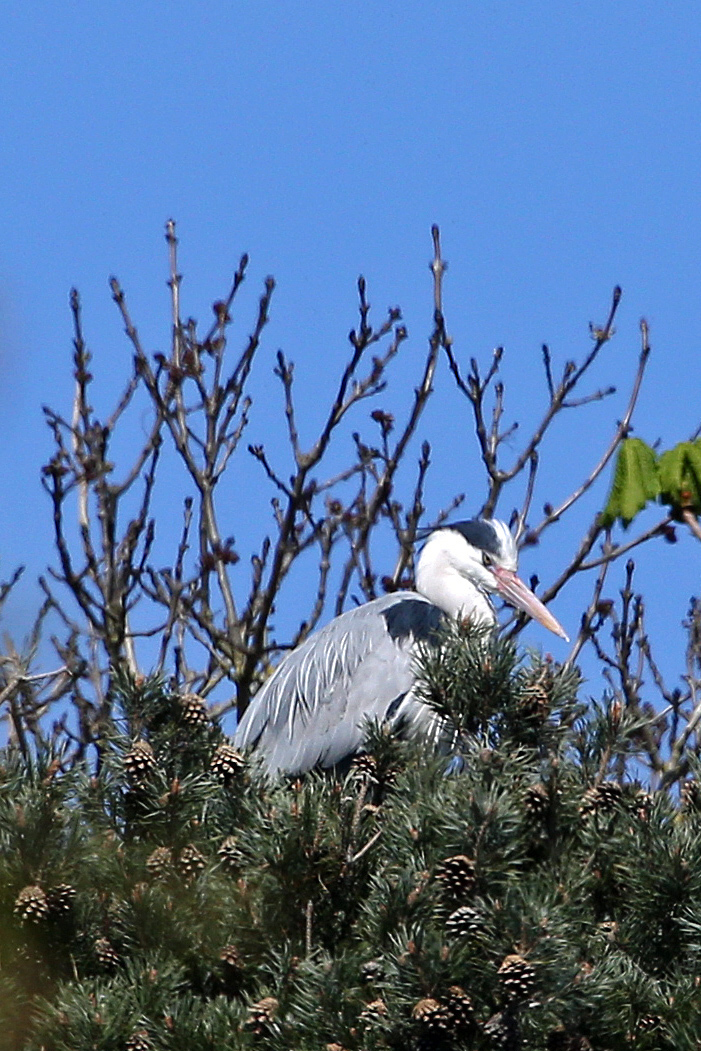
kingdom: Animalia
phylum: Chordata
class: Aves
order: Pelecaniformes
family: Ardeidae
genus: Ardea
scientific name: Ardea cinerea
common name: Grey heron
